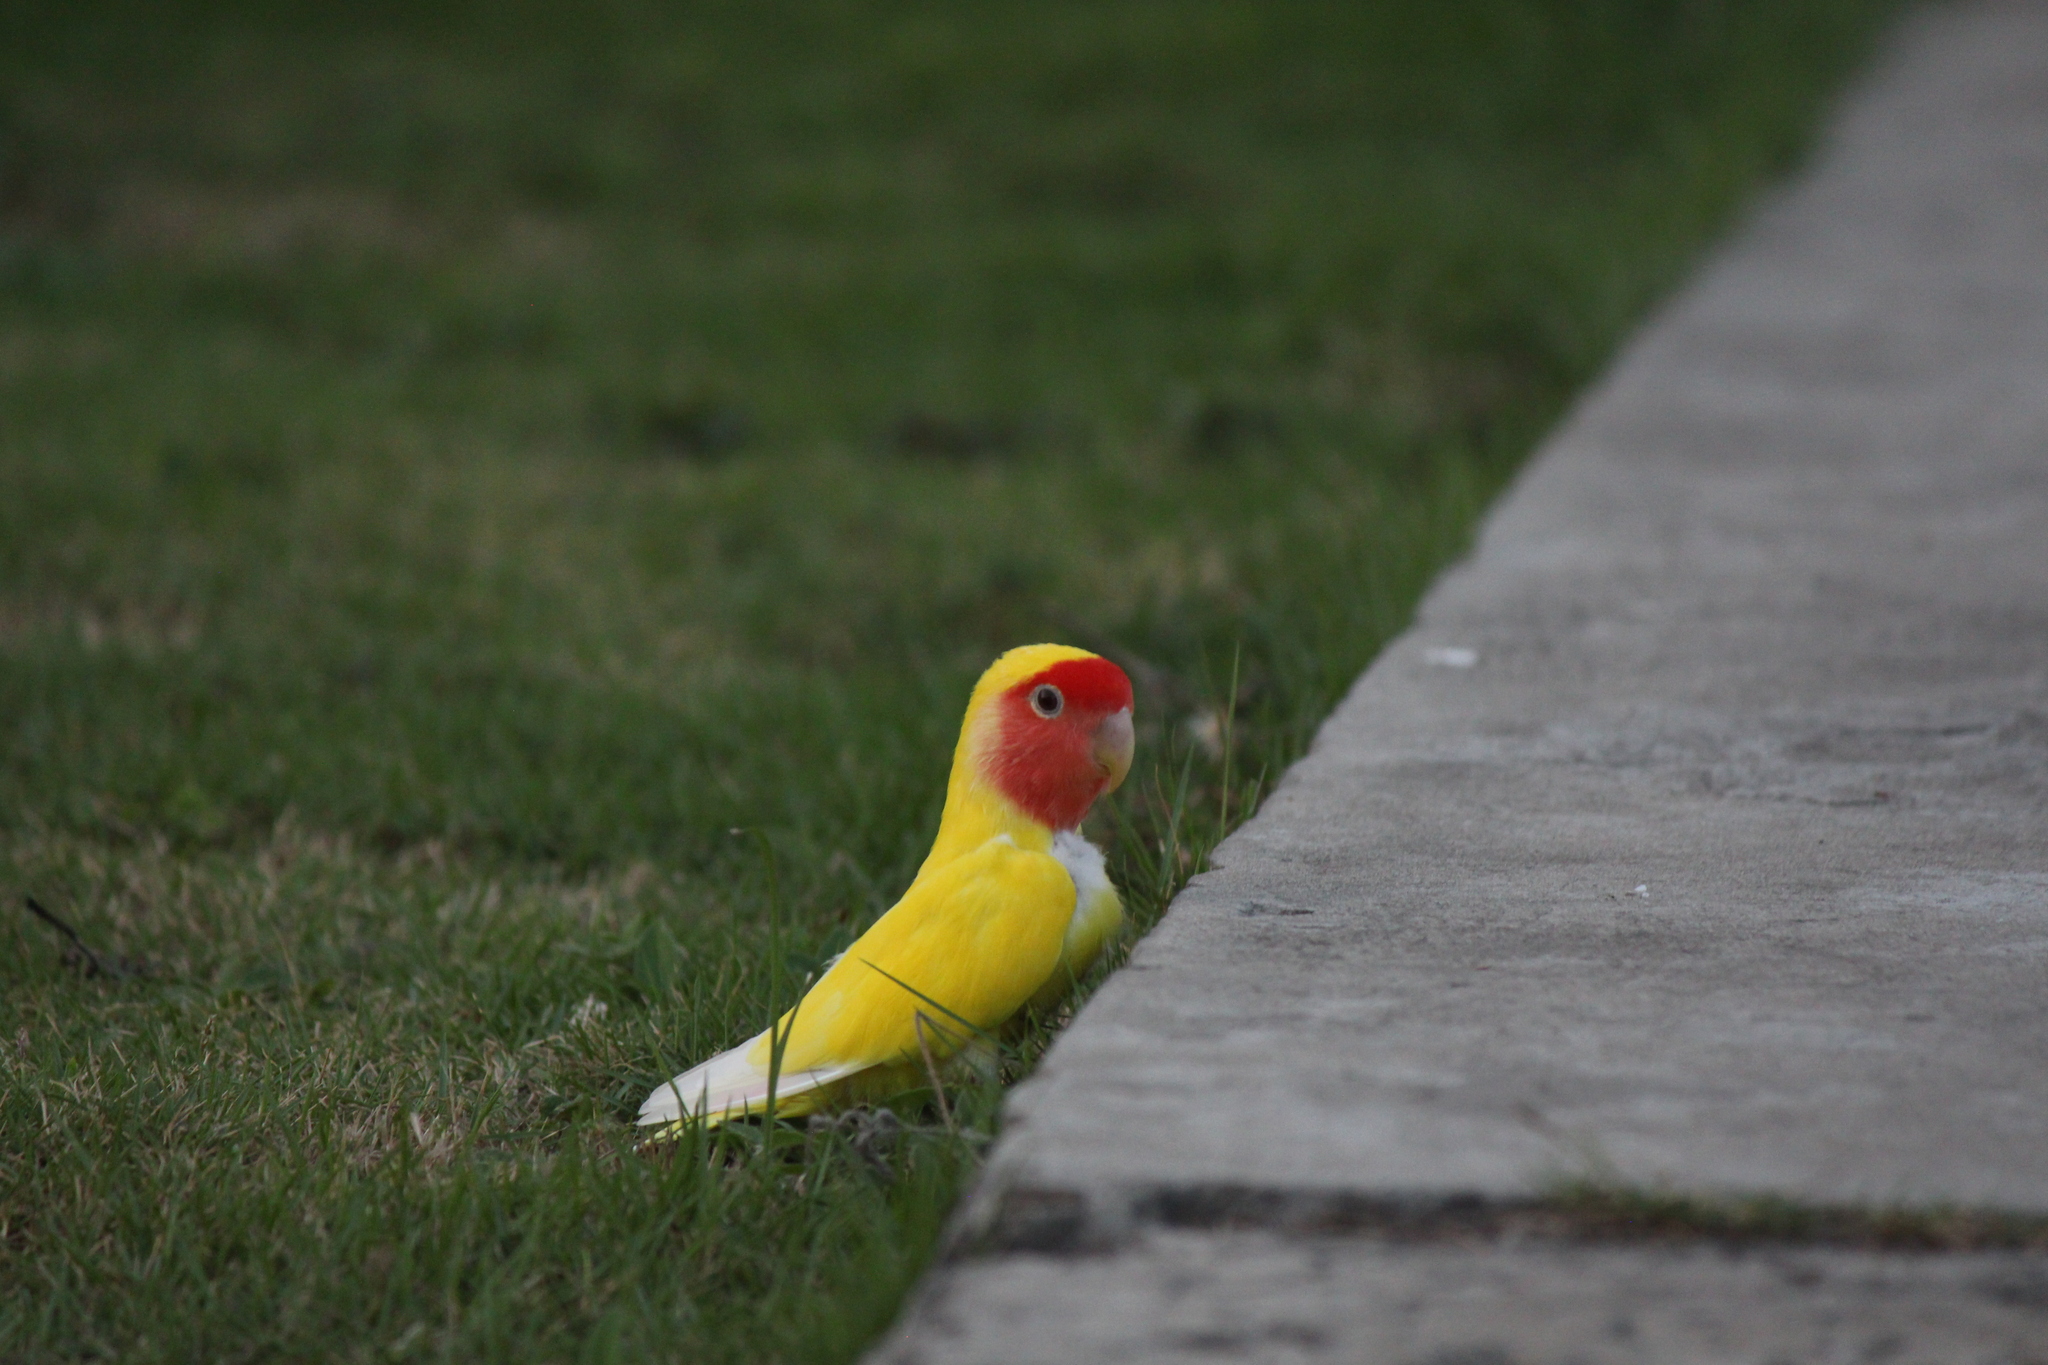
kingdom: Animalia
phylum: Chordata
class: Aves
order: Psittaciformes
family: Psittacidae
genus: Agapornis
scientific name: Agapornis roseicollis
